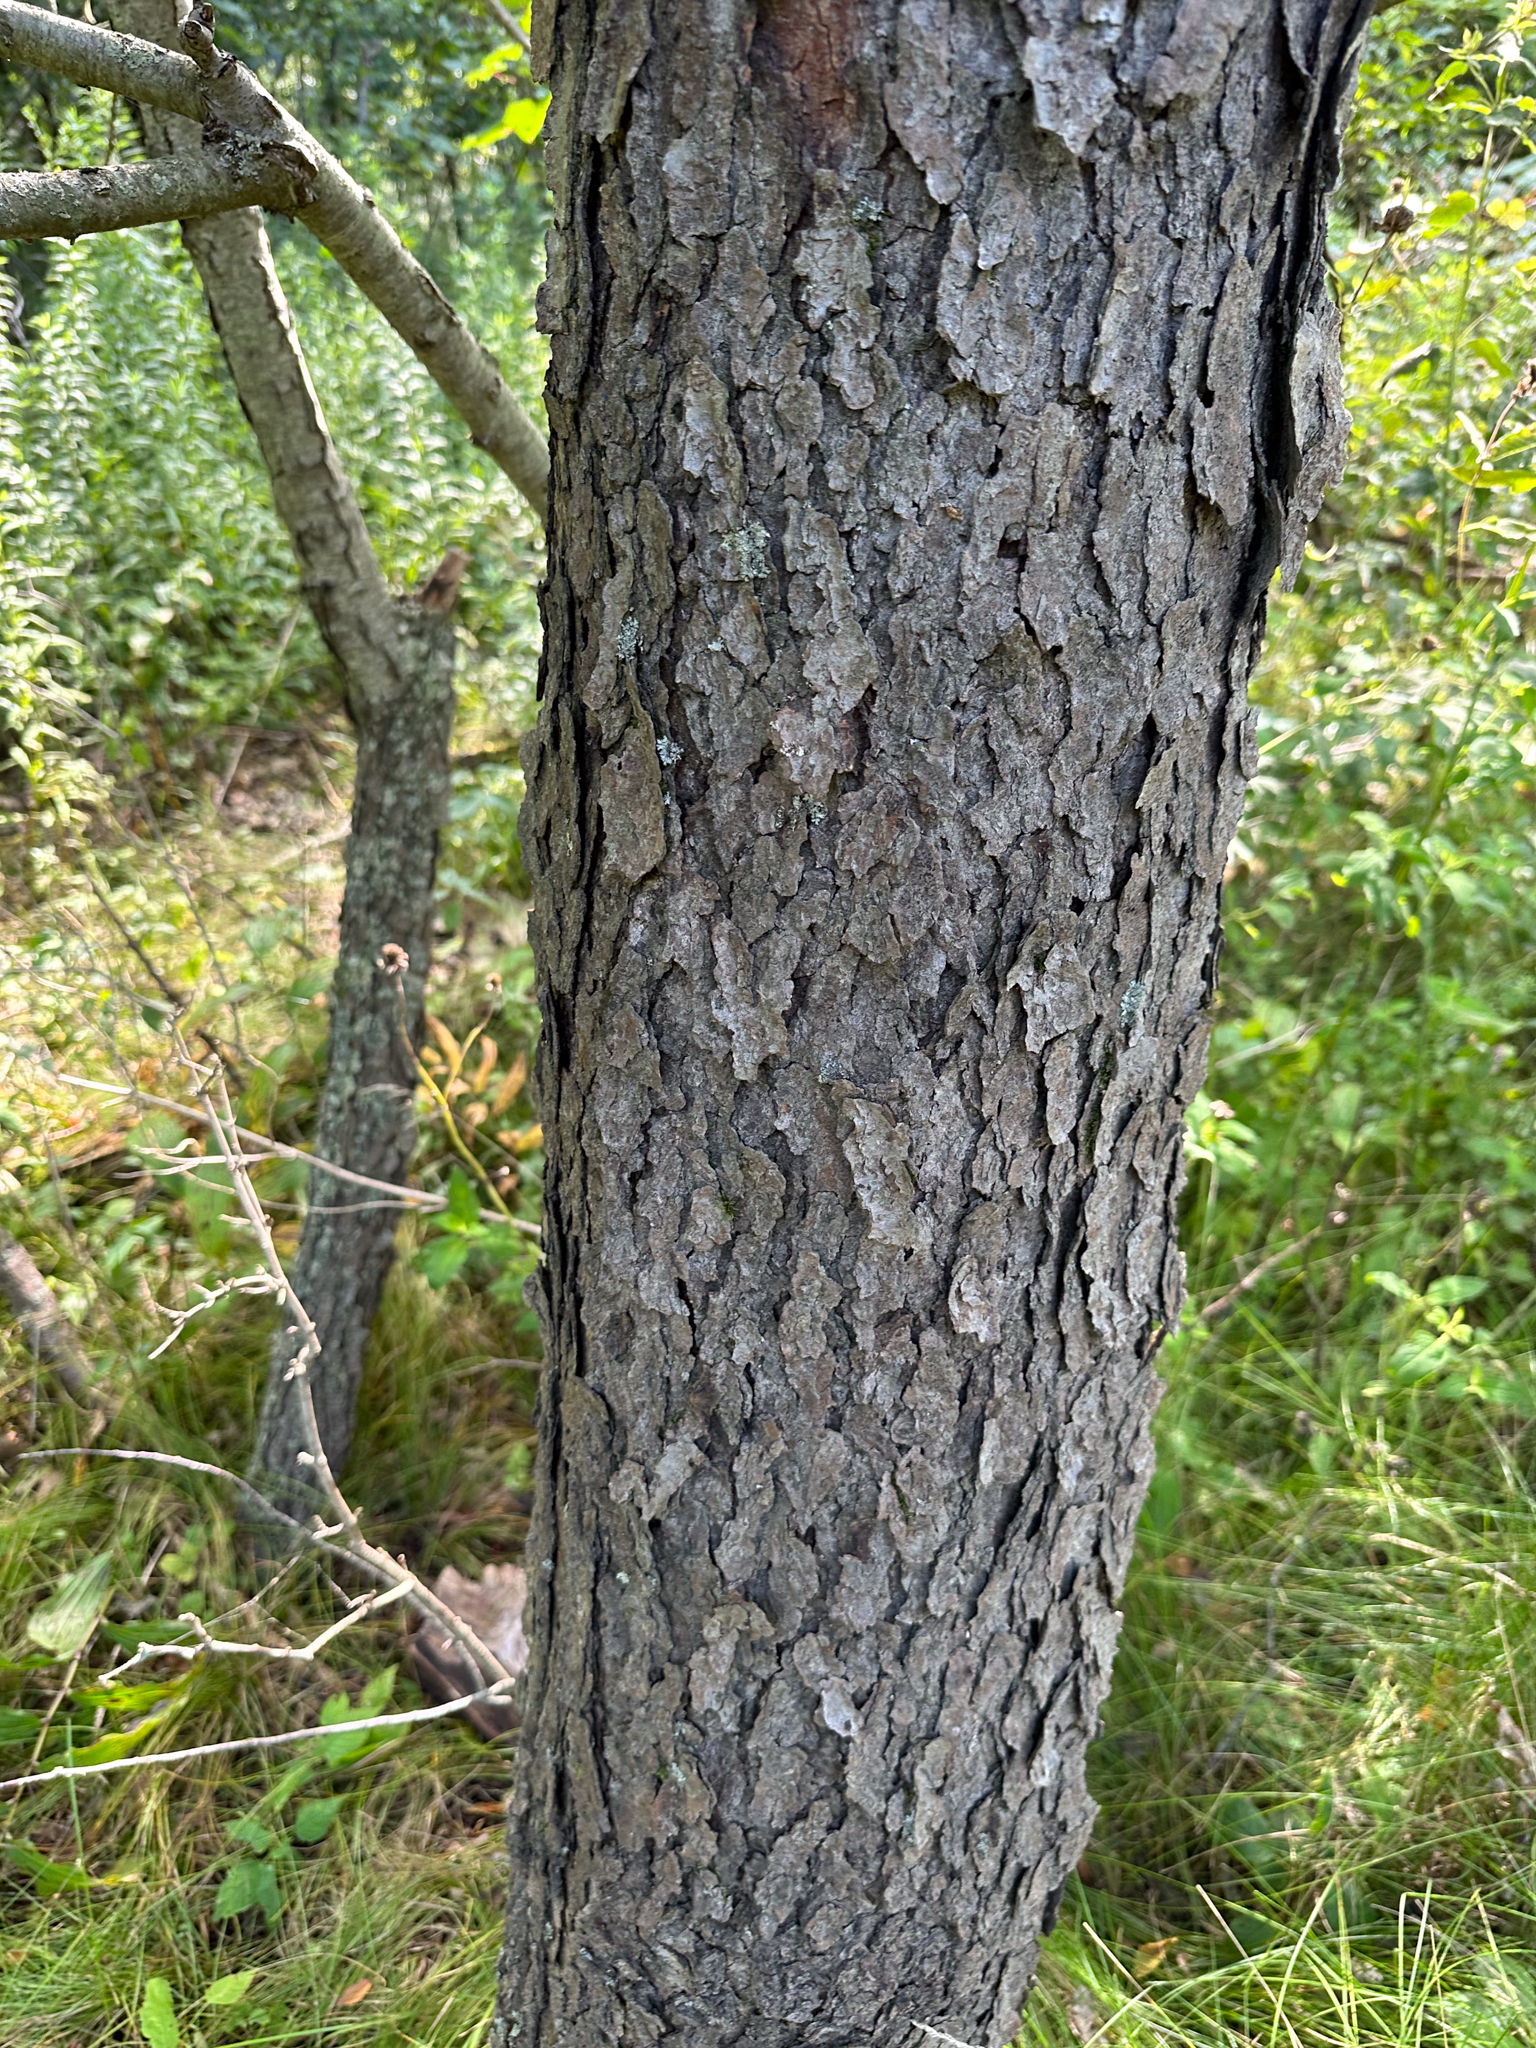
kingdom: Plantae
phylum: Tracheophyta
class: Magnoliopsida
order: Rosales
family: Rosaceae
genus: Prunus
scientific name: Prunus serotina
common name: Black cherry
